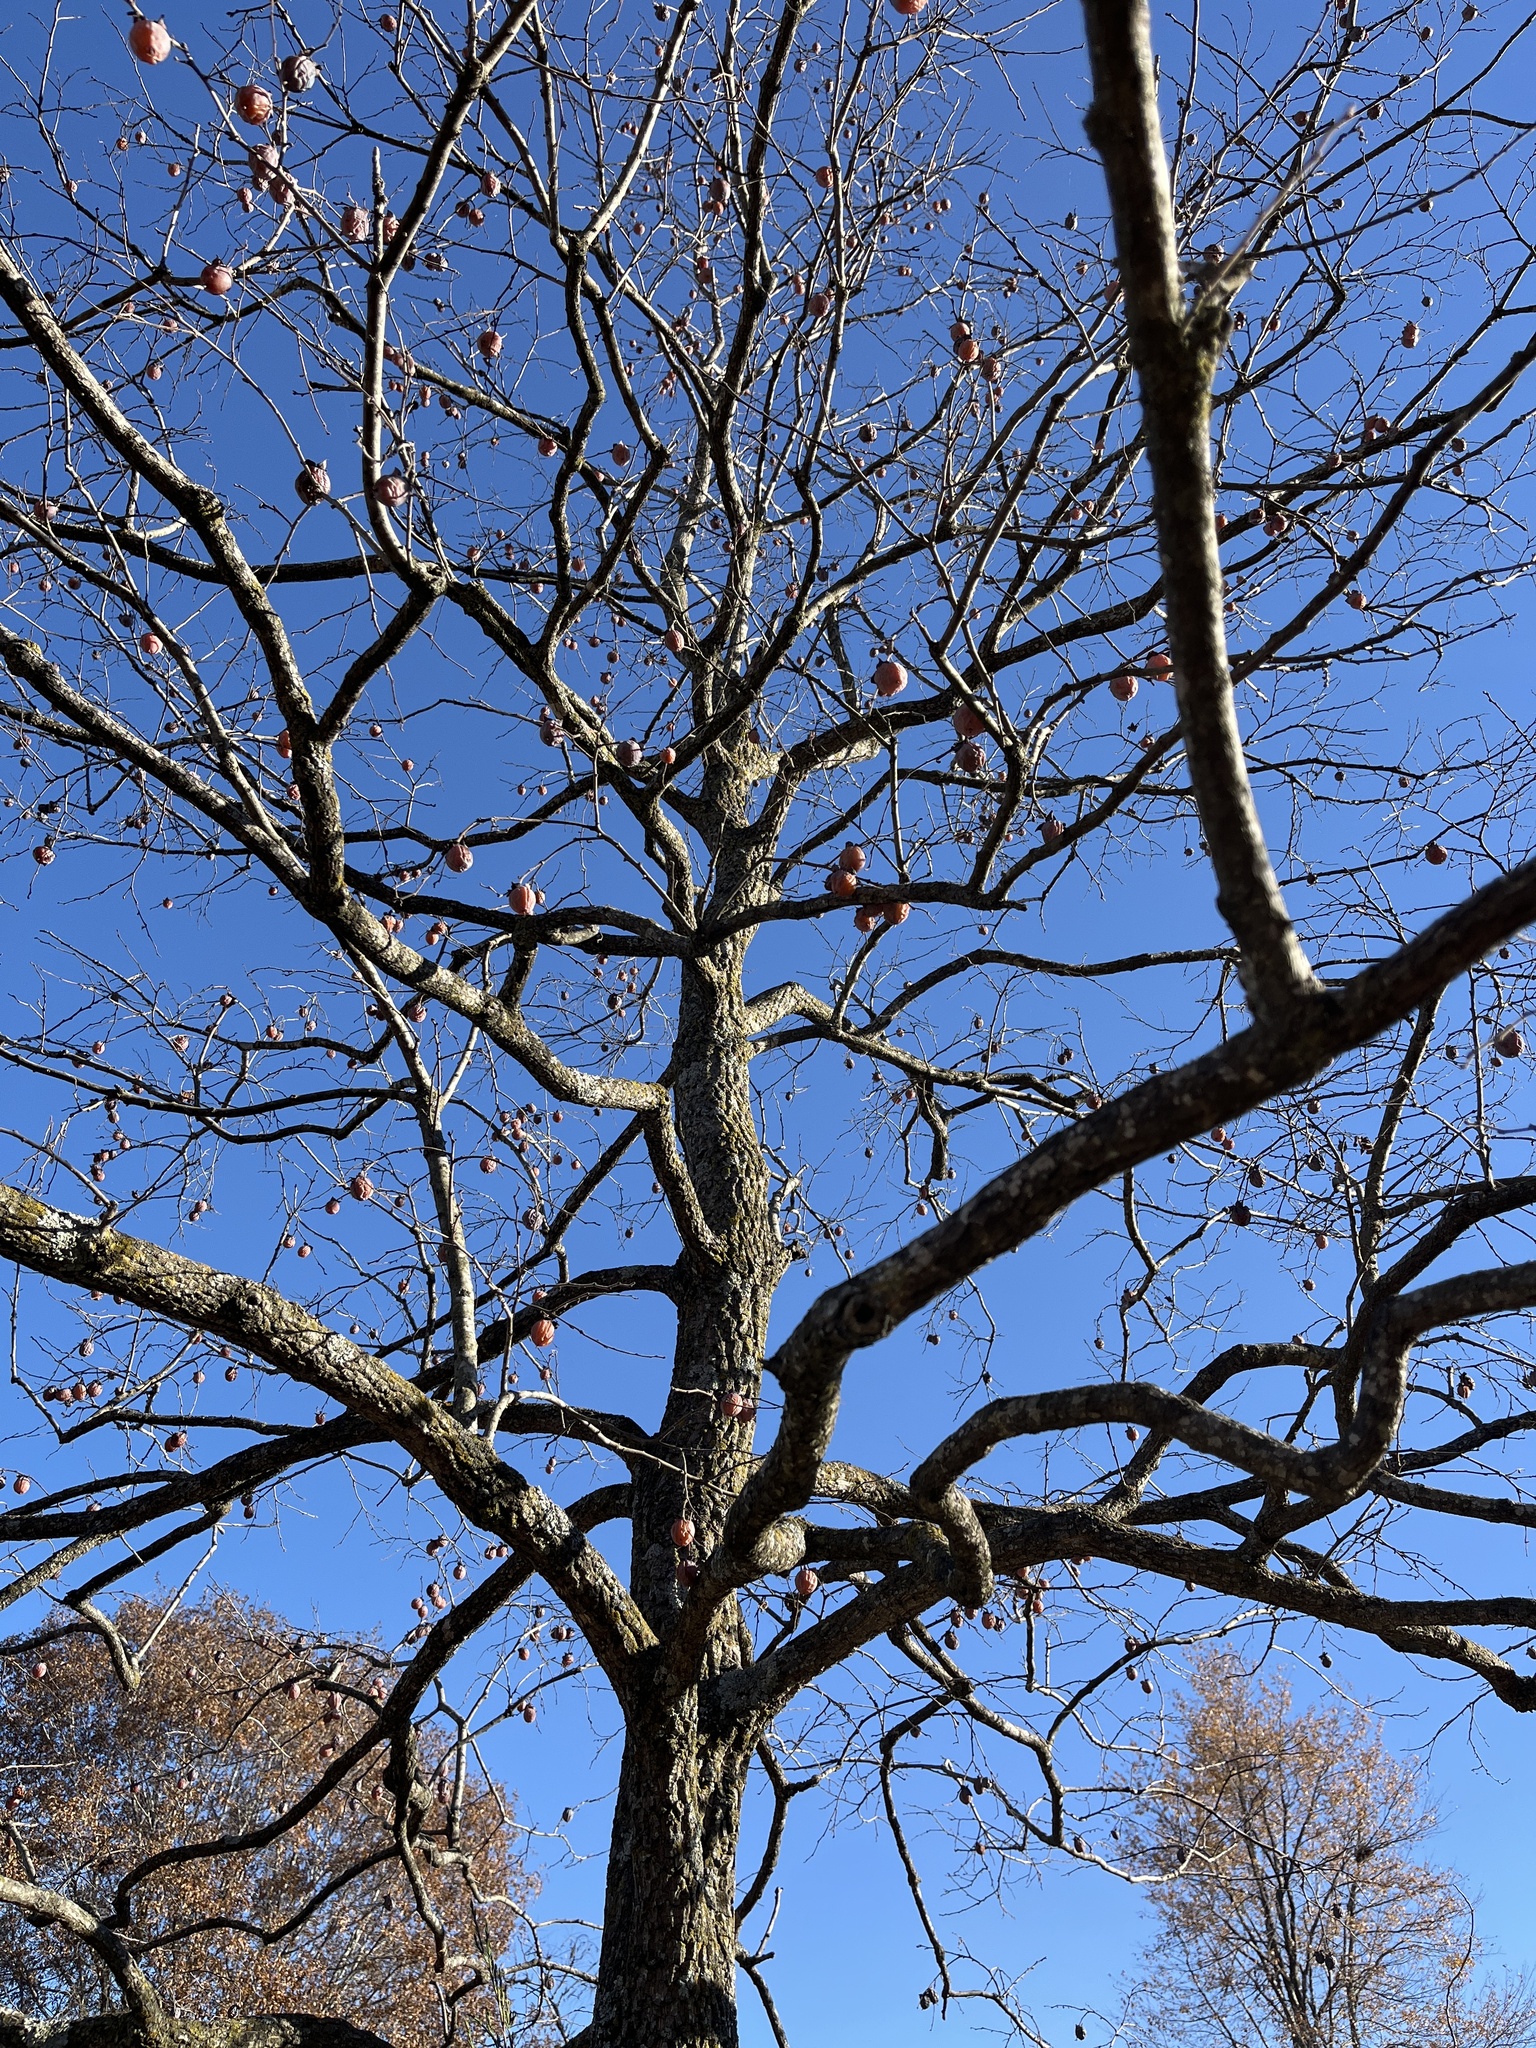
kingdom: Plantae
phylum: Tracheophyta
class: Magnoliopsida
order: Ericales
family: Ebenaceae
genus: Diospyros
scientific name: Diospyros virginiana
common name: Persimmon
